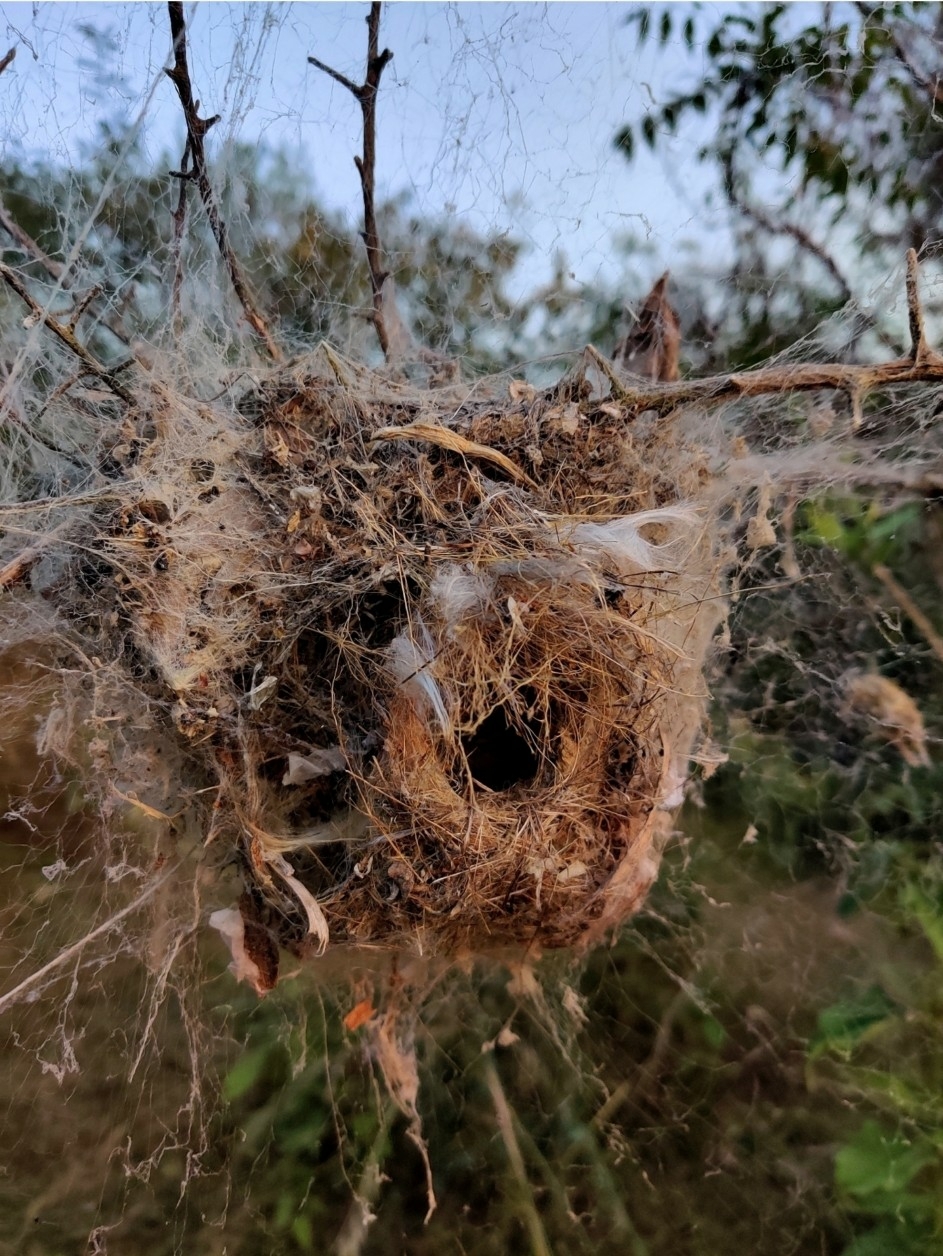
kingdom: Animalia
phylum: Arthropoda
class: Arachnida
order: Araneae
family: Eresidae
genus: Stegodyphus
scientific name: Stegodyphus sarasinorum
